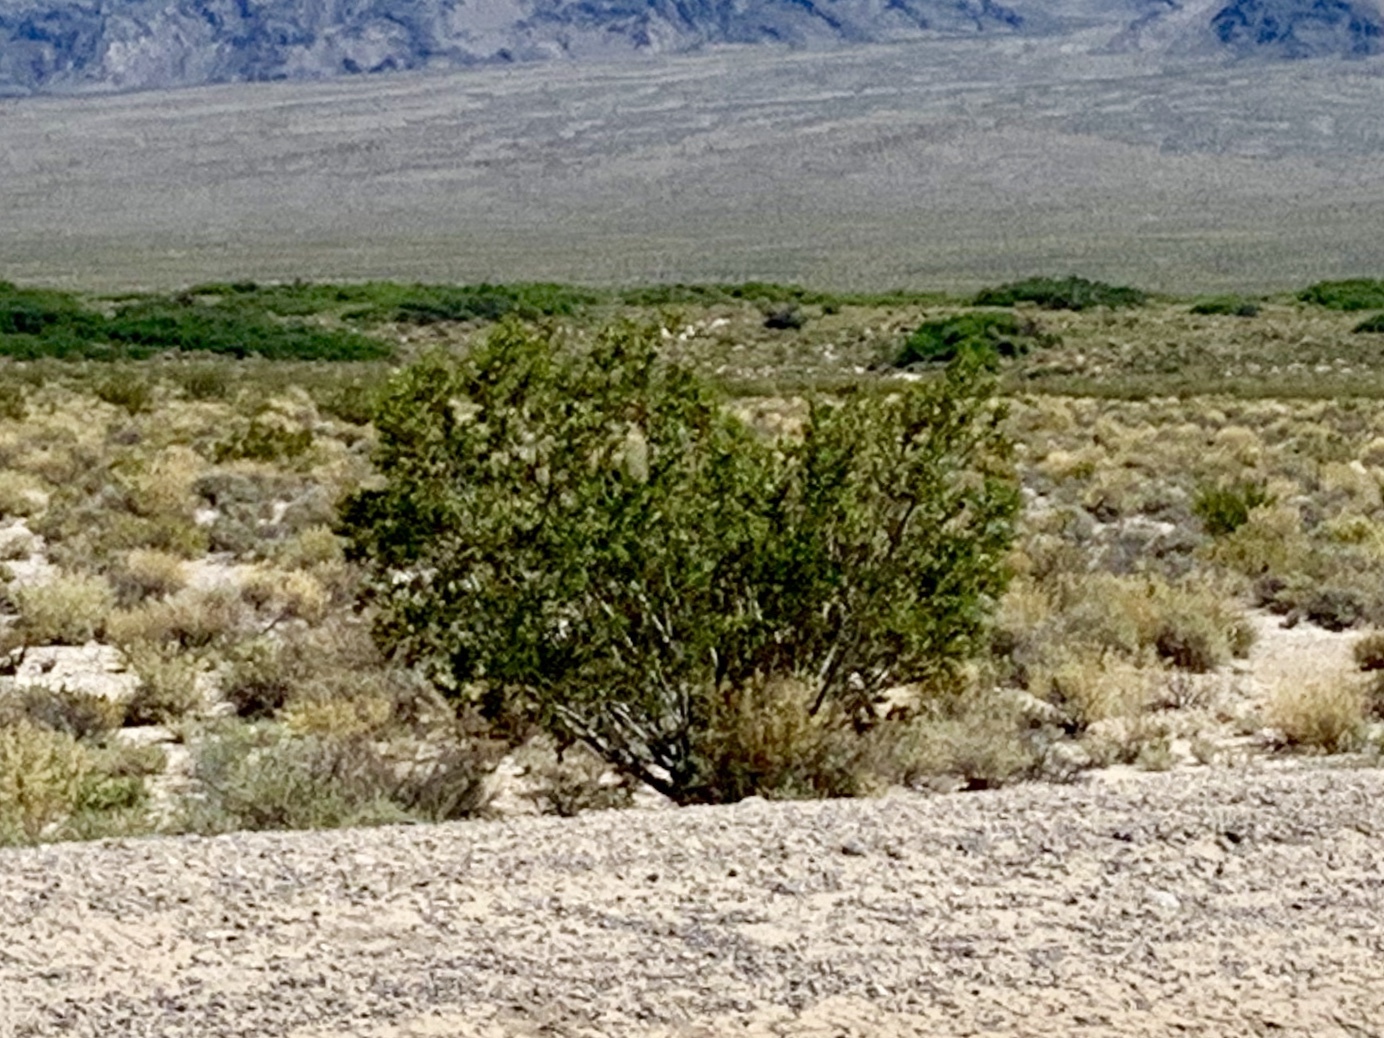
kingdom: Plantae
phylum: Tracheophyta
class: Magnoliopsida
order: Zygophyllales
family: Zygophyllaceae
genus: Larrea
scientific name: Larrea tridentata
